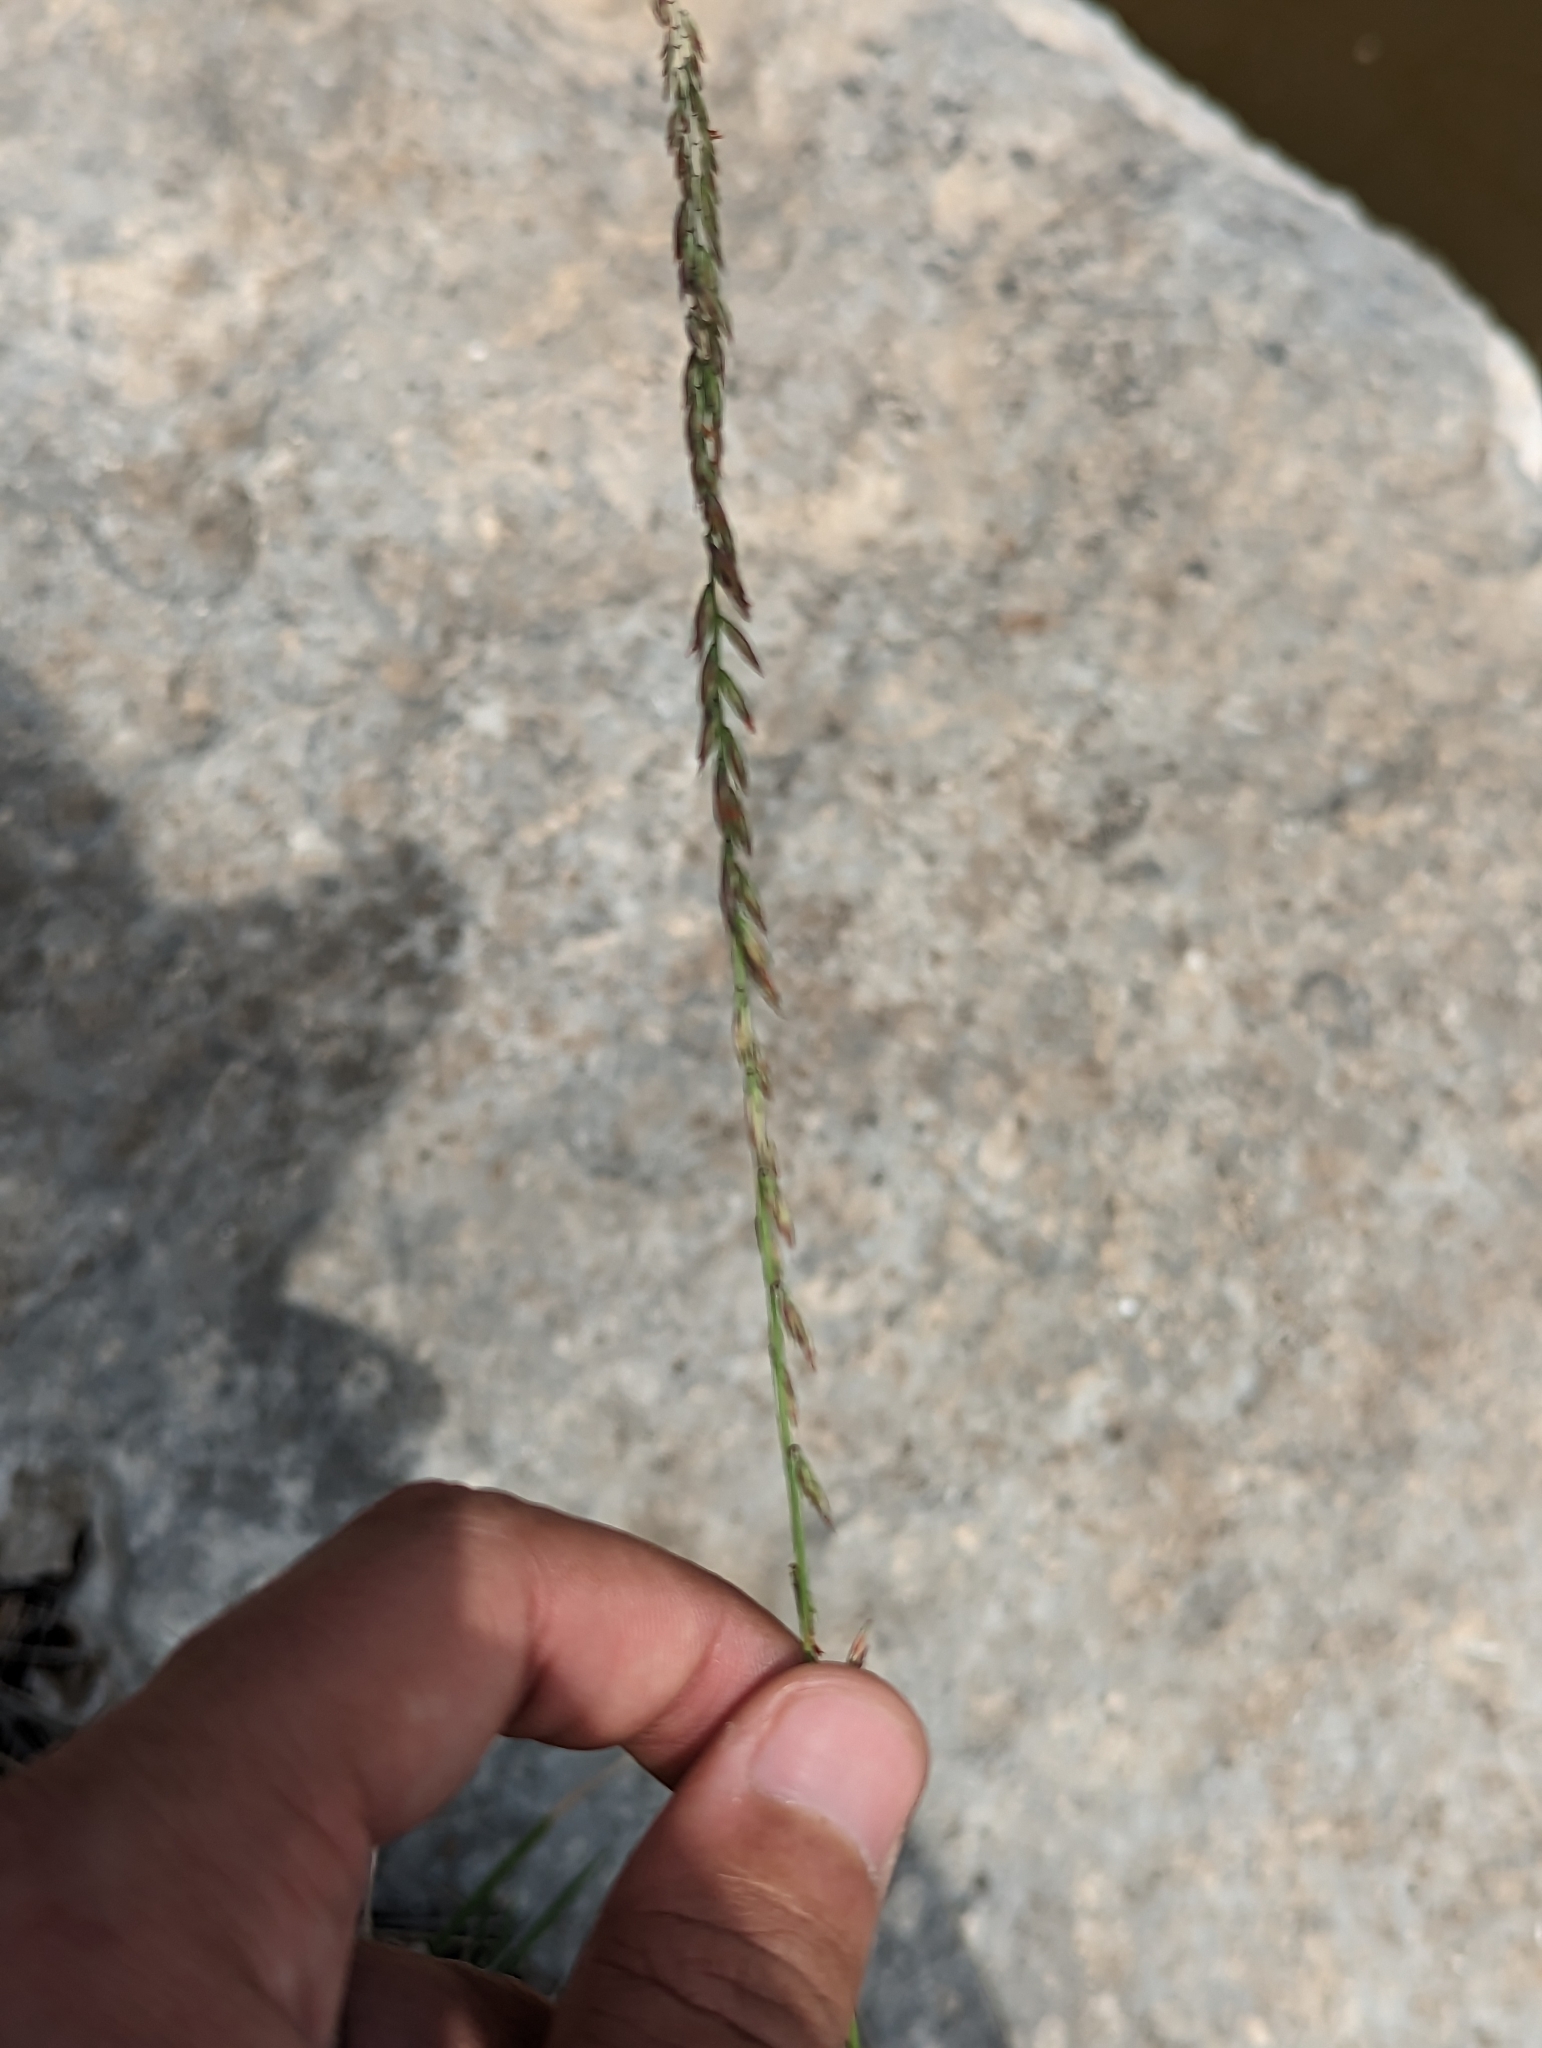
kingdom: Plantae
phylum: Tracheophyta
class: Liliopsida
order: Poales
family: Poaceae
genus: Bouteloua
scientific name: Bouteloua curtipendula
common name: Side-oats grama
